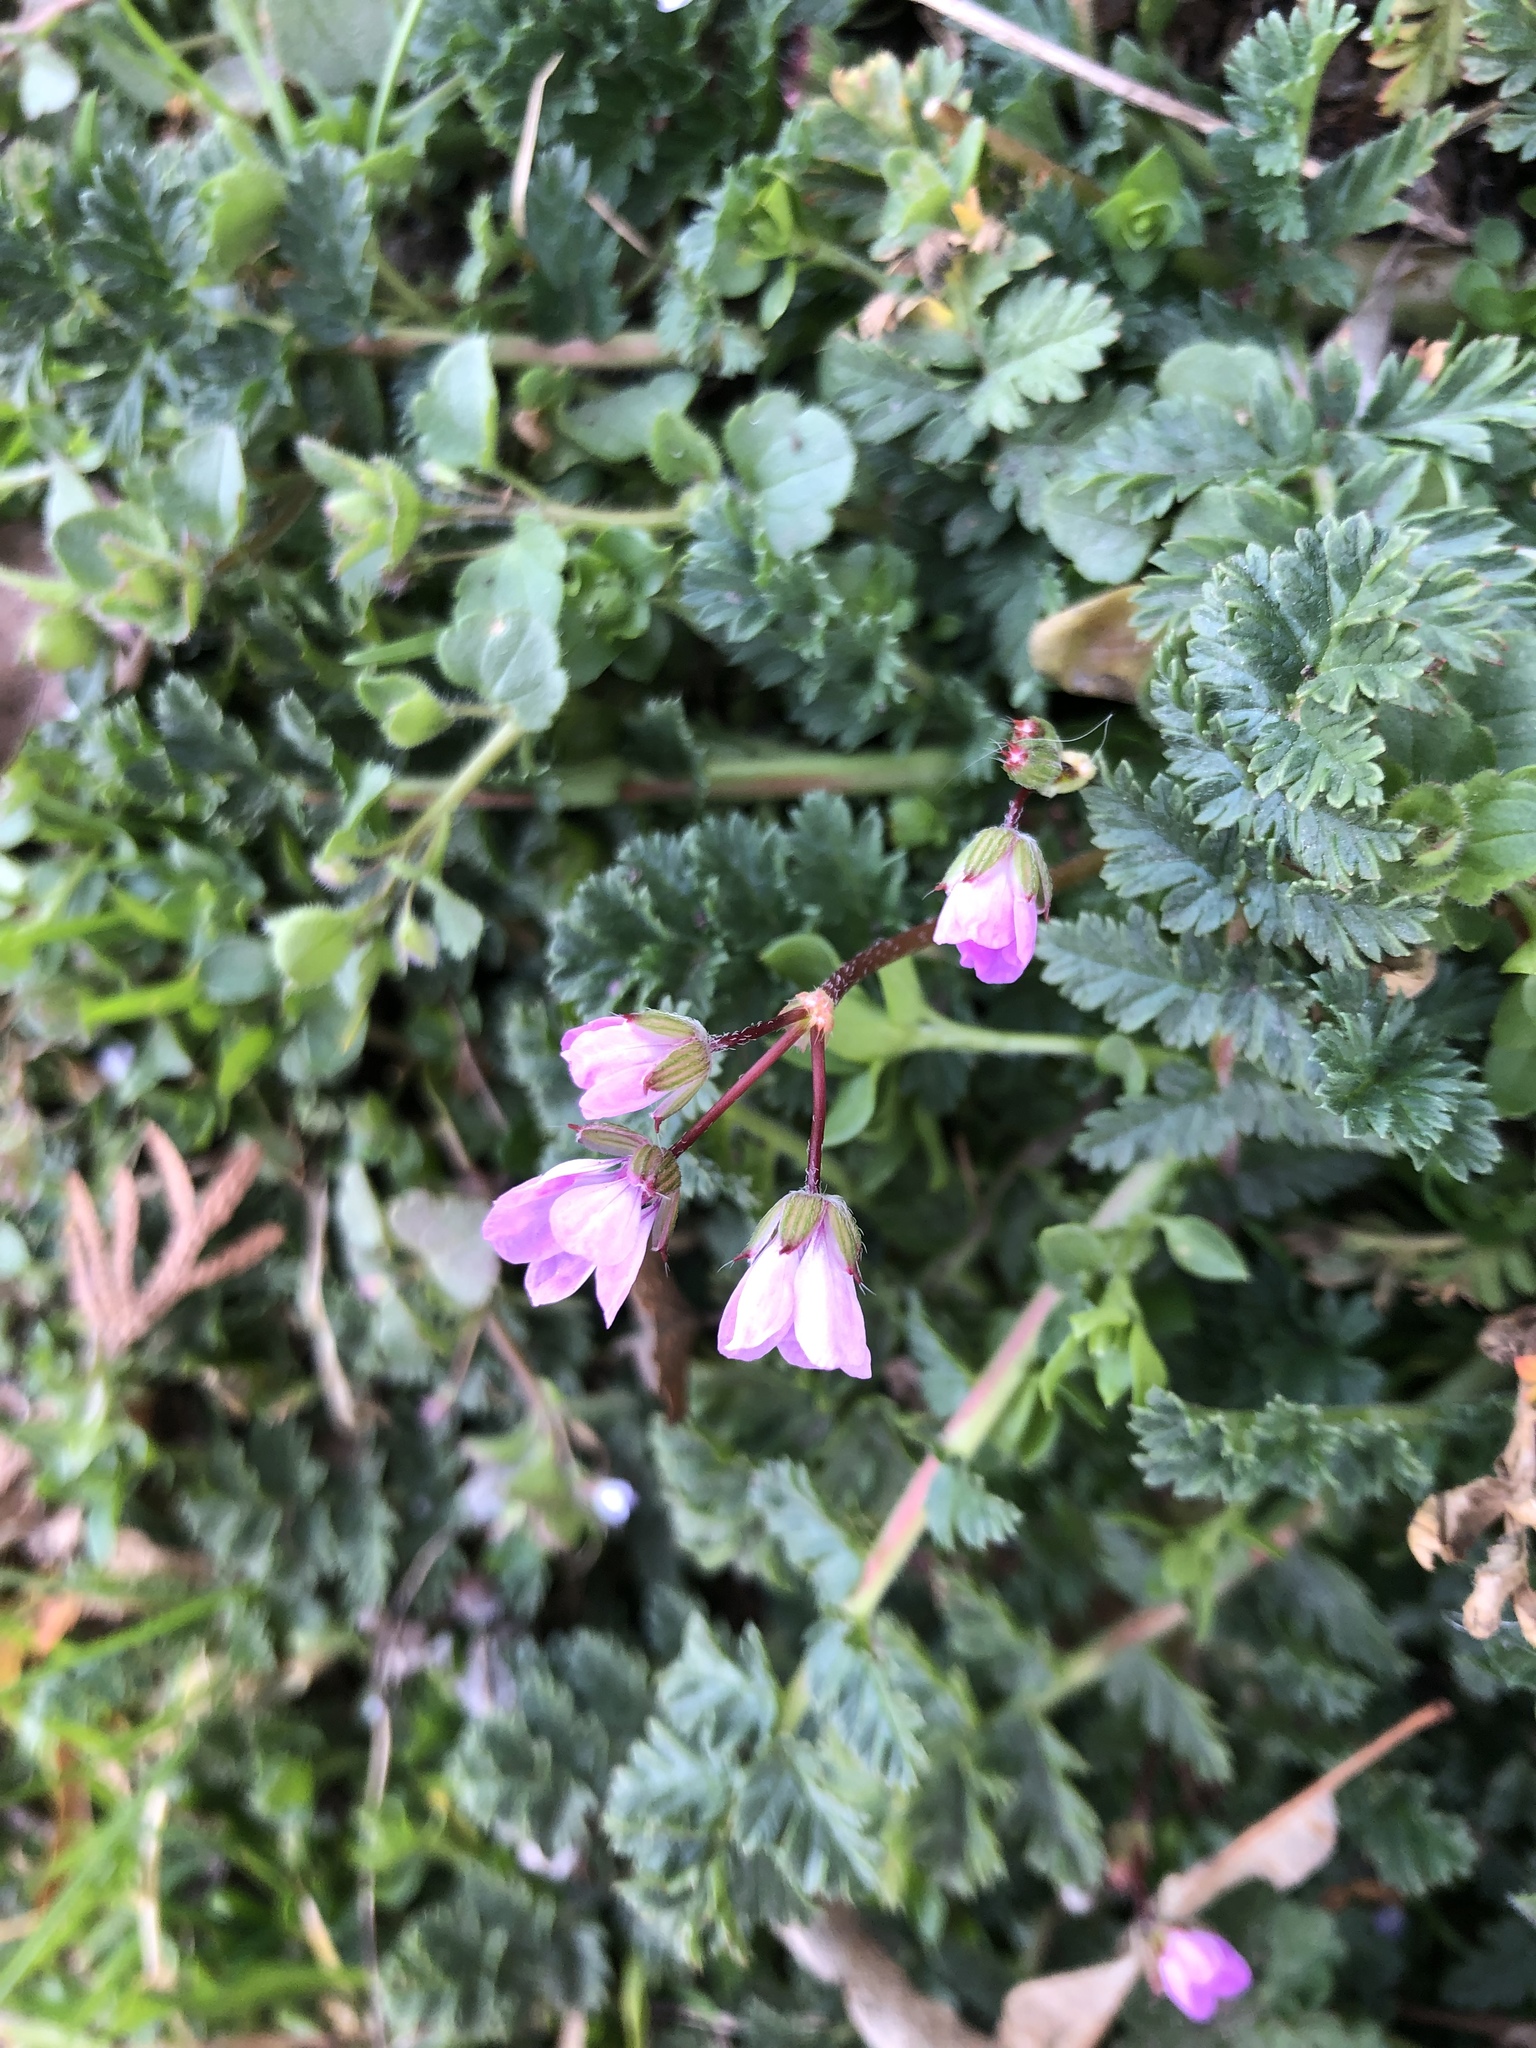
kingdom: Plantae
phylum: Tracheophyta
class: Magnoliopsida
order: Geraniales
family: Geraniaceae
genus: Erodium
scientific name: Erodium cicutarium
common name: Common stork's-bill
